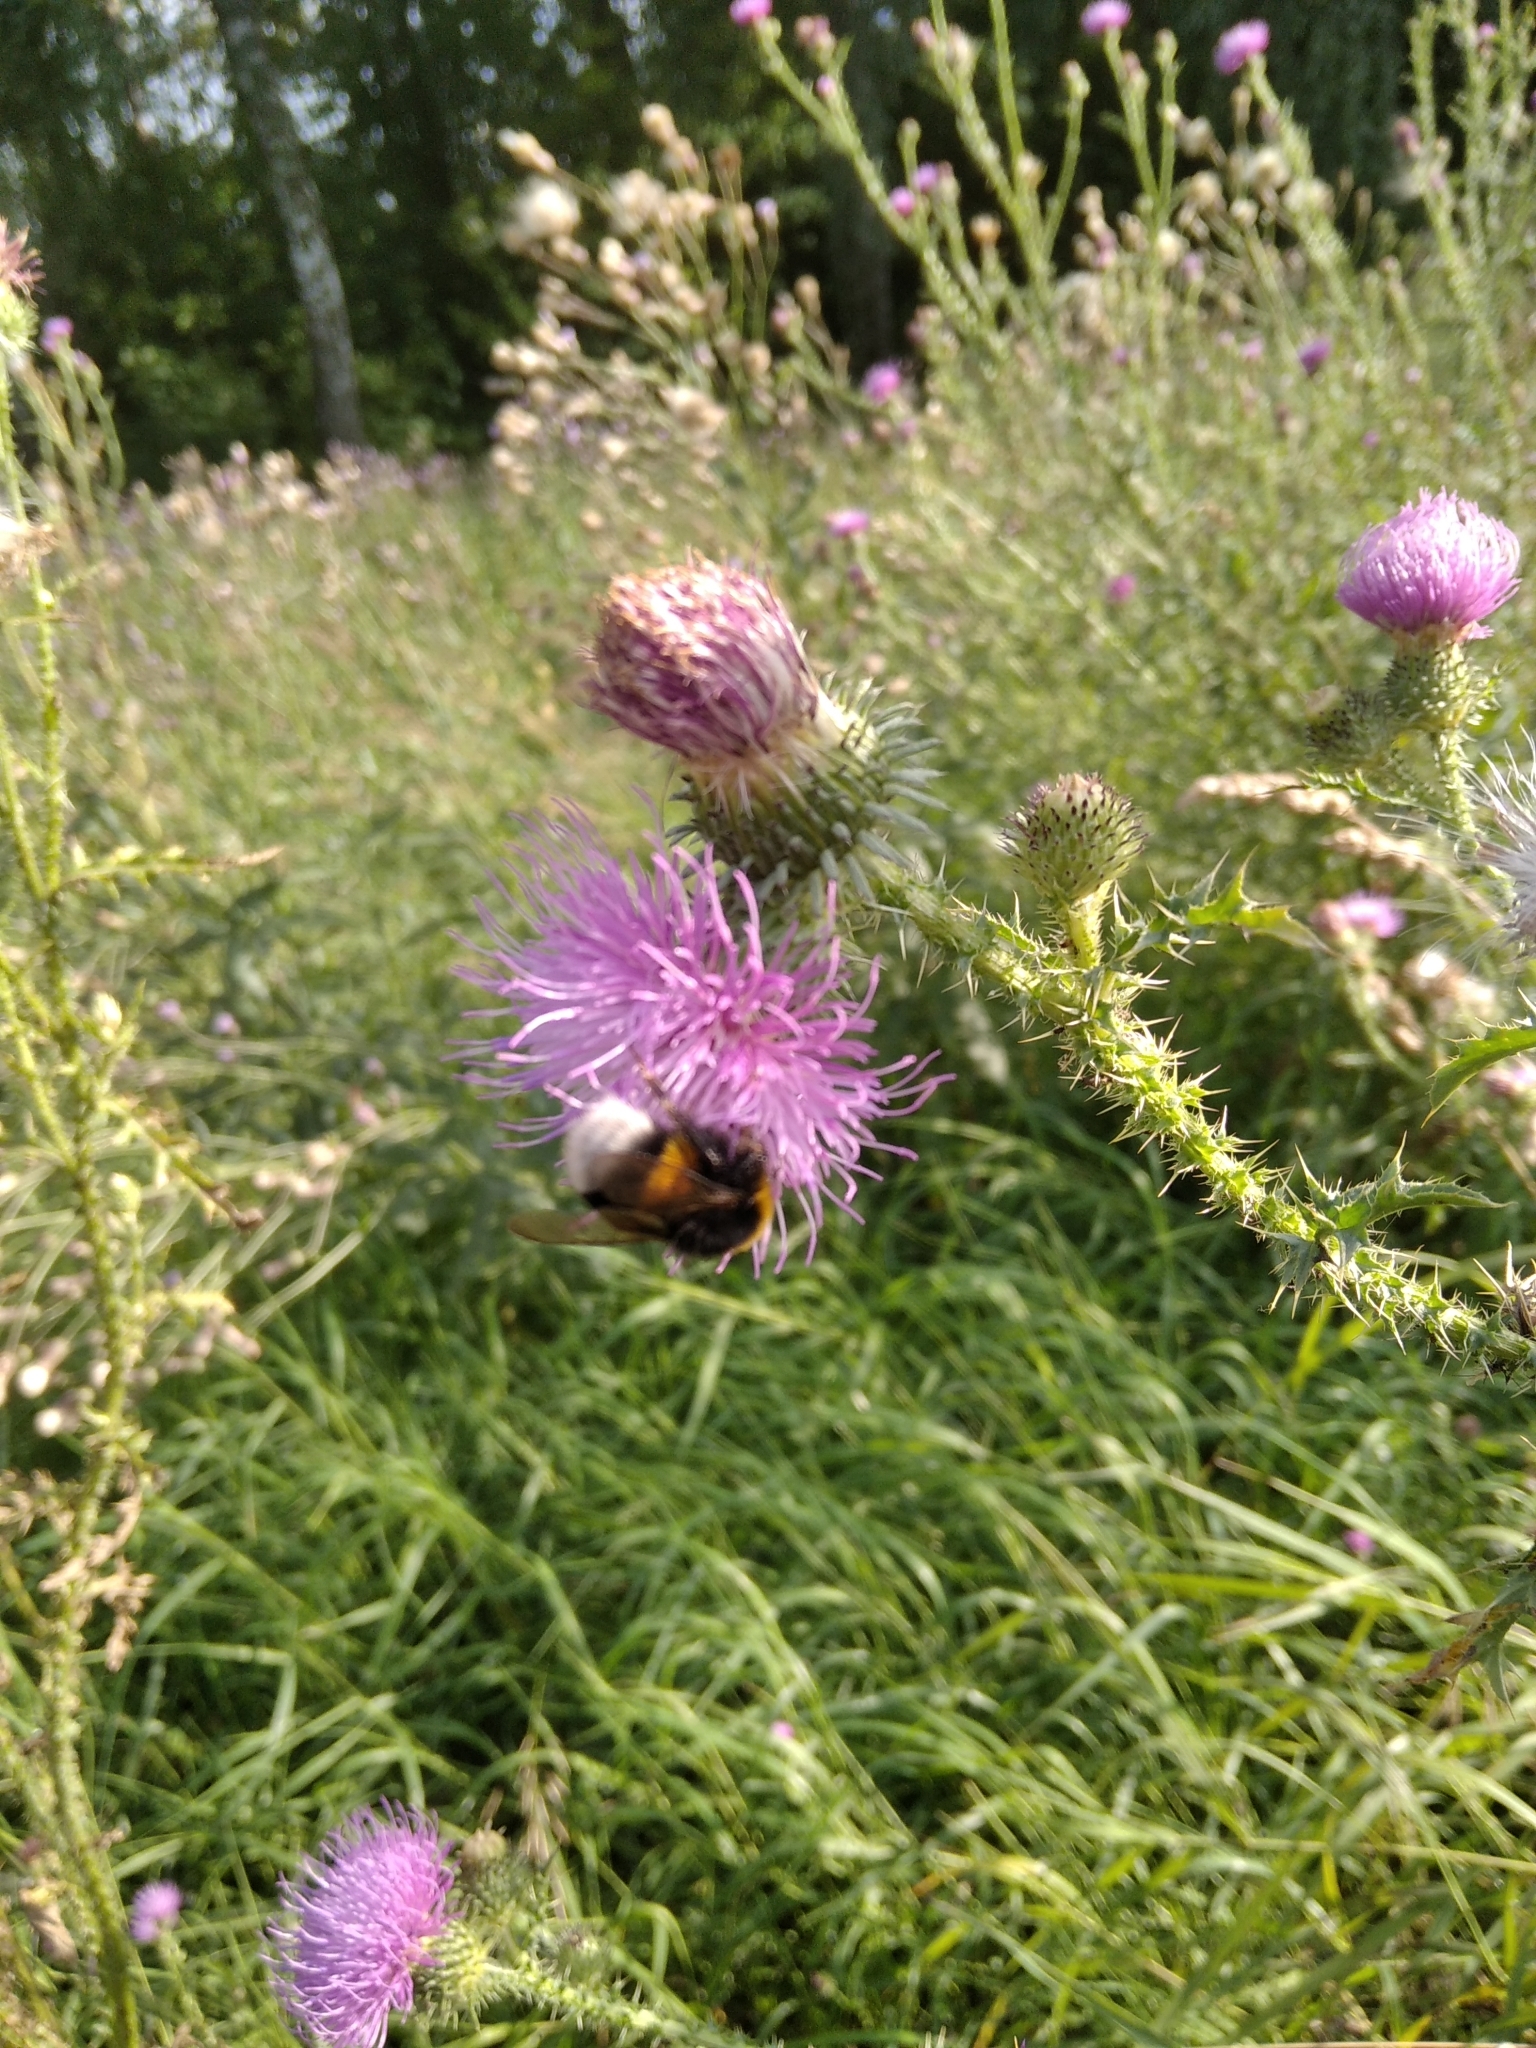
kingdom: Animalia
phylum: Arthropoda
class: Insecta
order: Hymenoptera
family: Apidae
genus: Bombus
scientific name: Bombus
